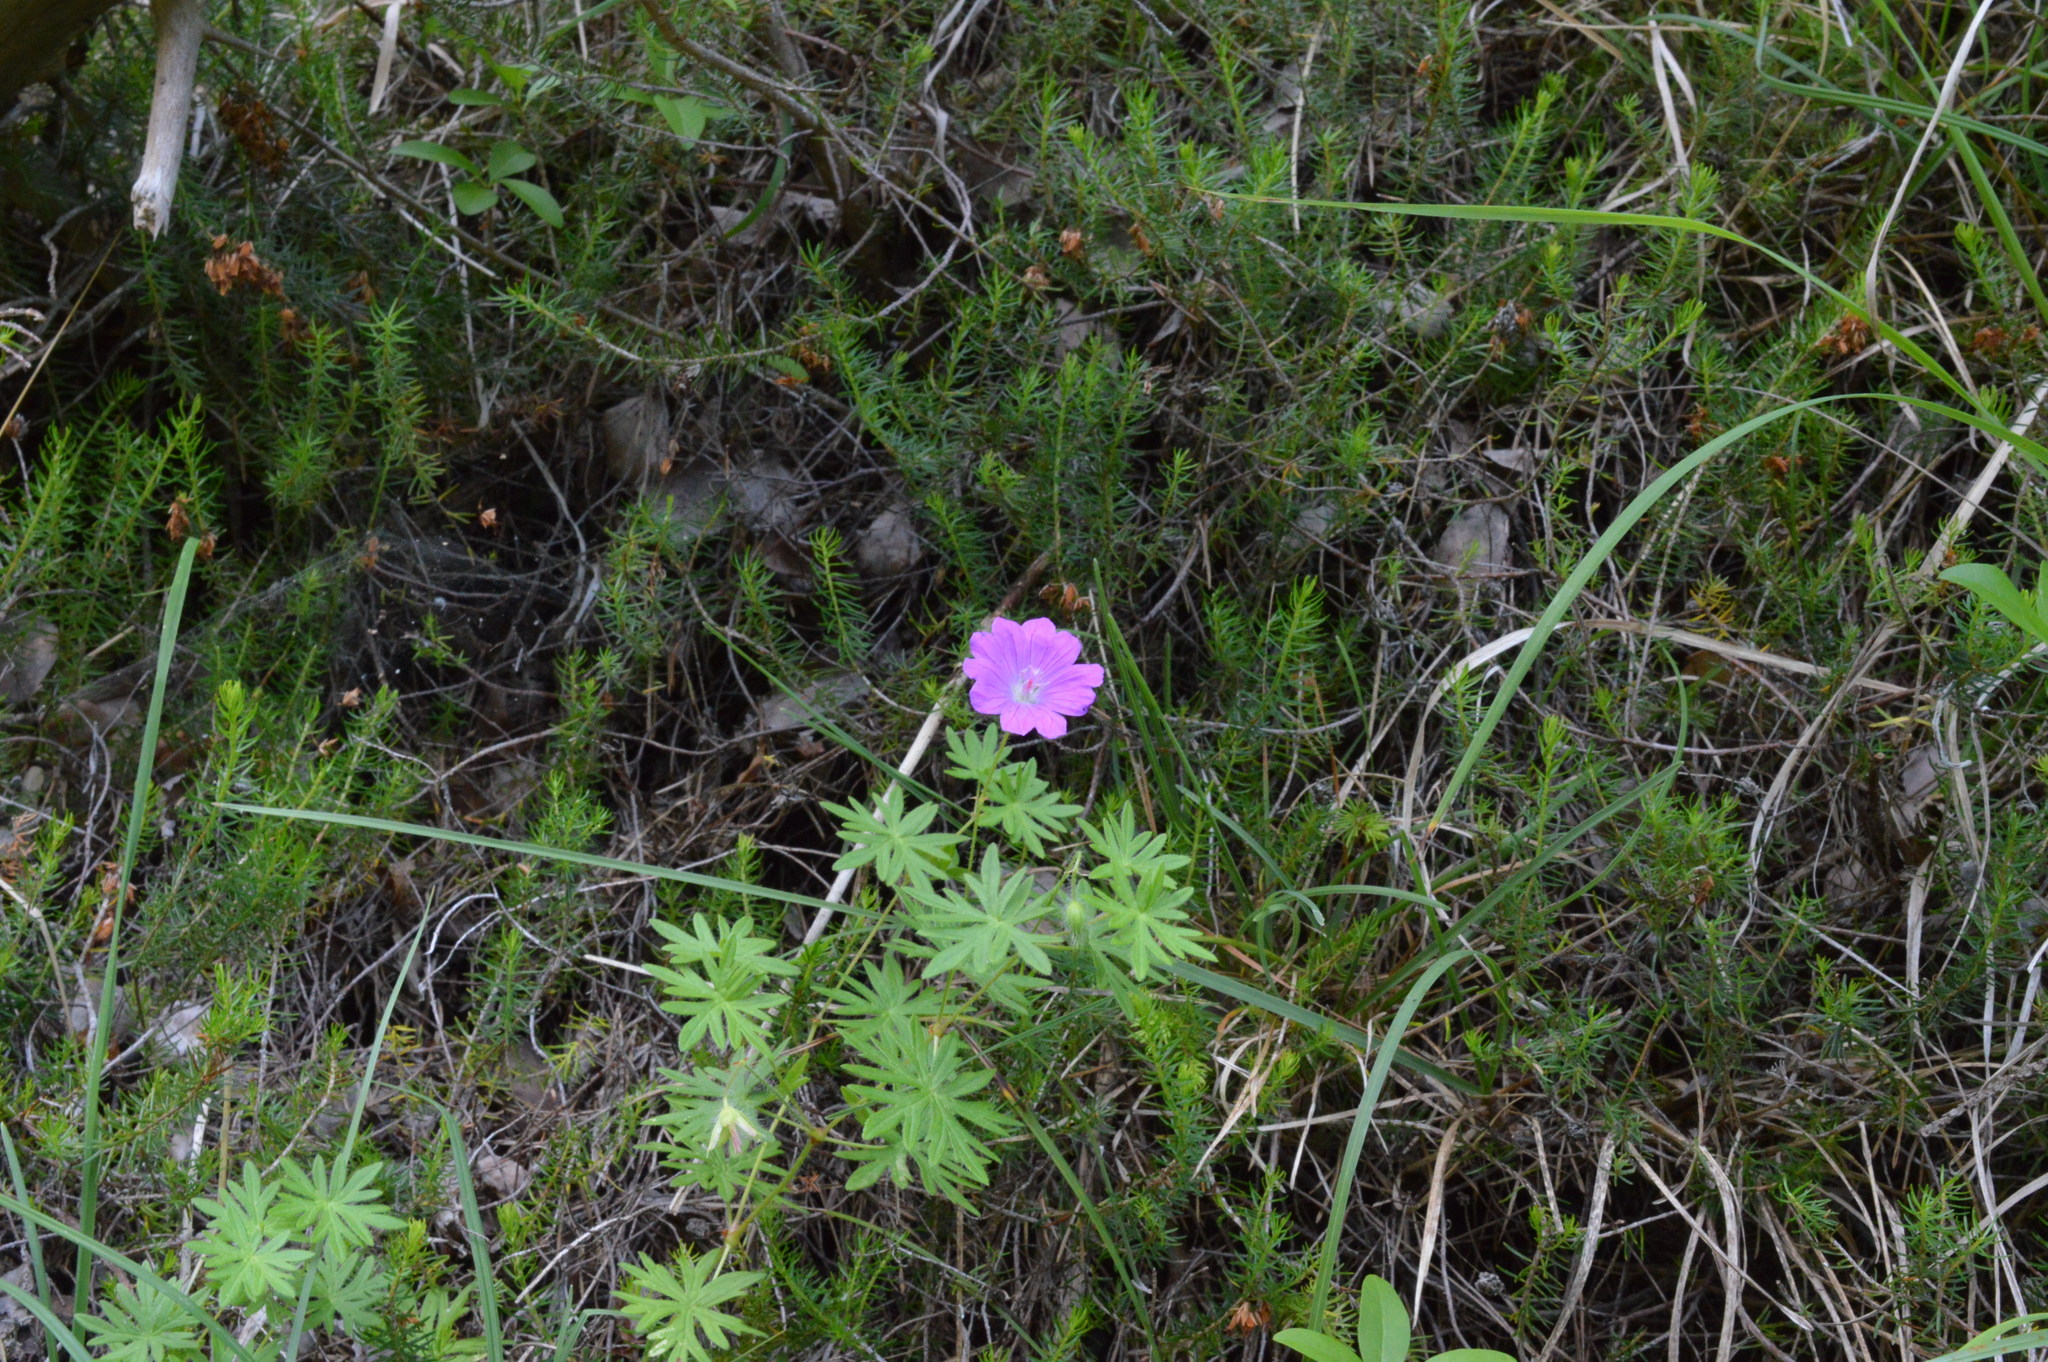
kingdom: Plantae
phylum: Tracheophyta
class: Magnoliopsida
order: Geraniales
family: Geraniaceae
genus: Geranium
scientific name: Geranium sanguineum
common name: Bloody crane's-bill
